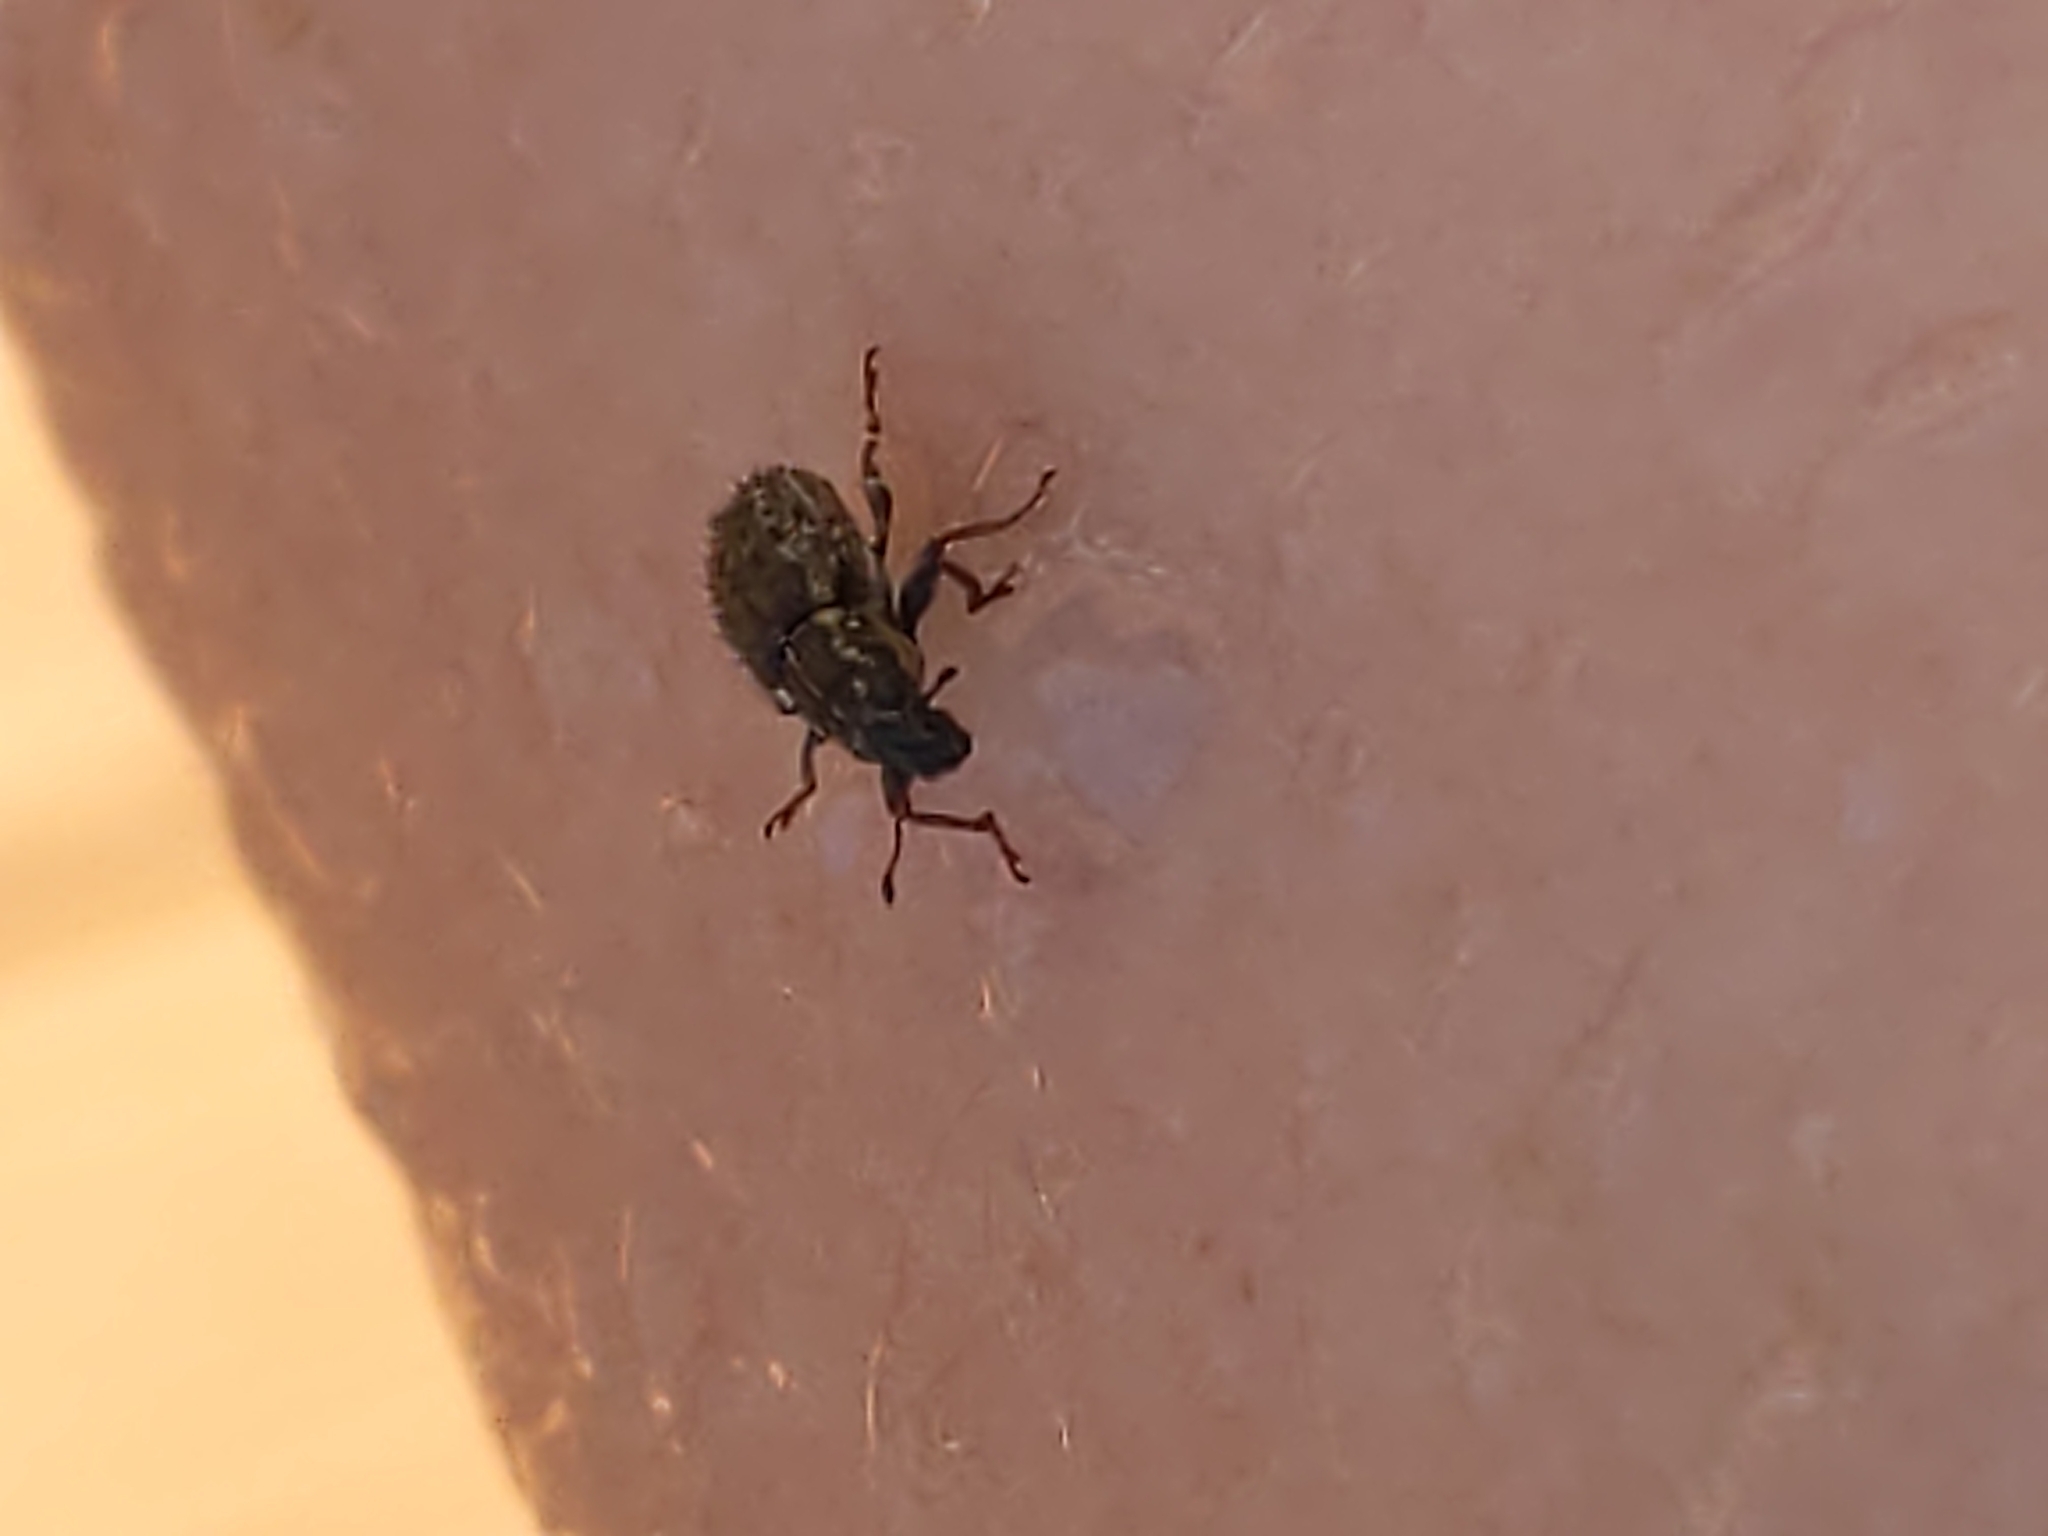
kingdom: Animalia
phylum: Arthropoda
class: Insecta
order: Coleoptera
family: Curculionidae
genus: Sitona
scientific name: Sitona hispidulus
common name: Clover weevil
